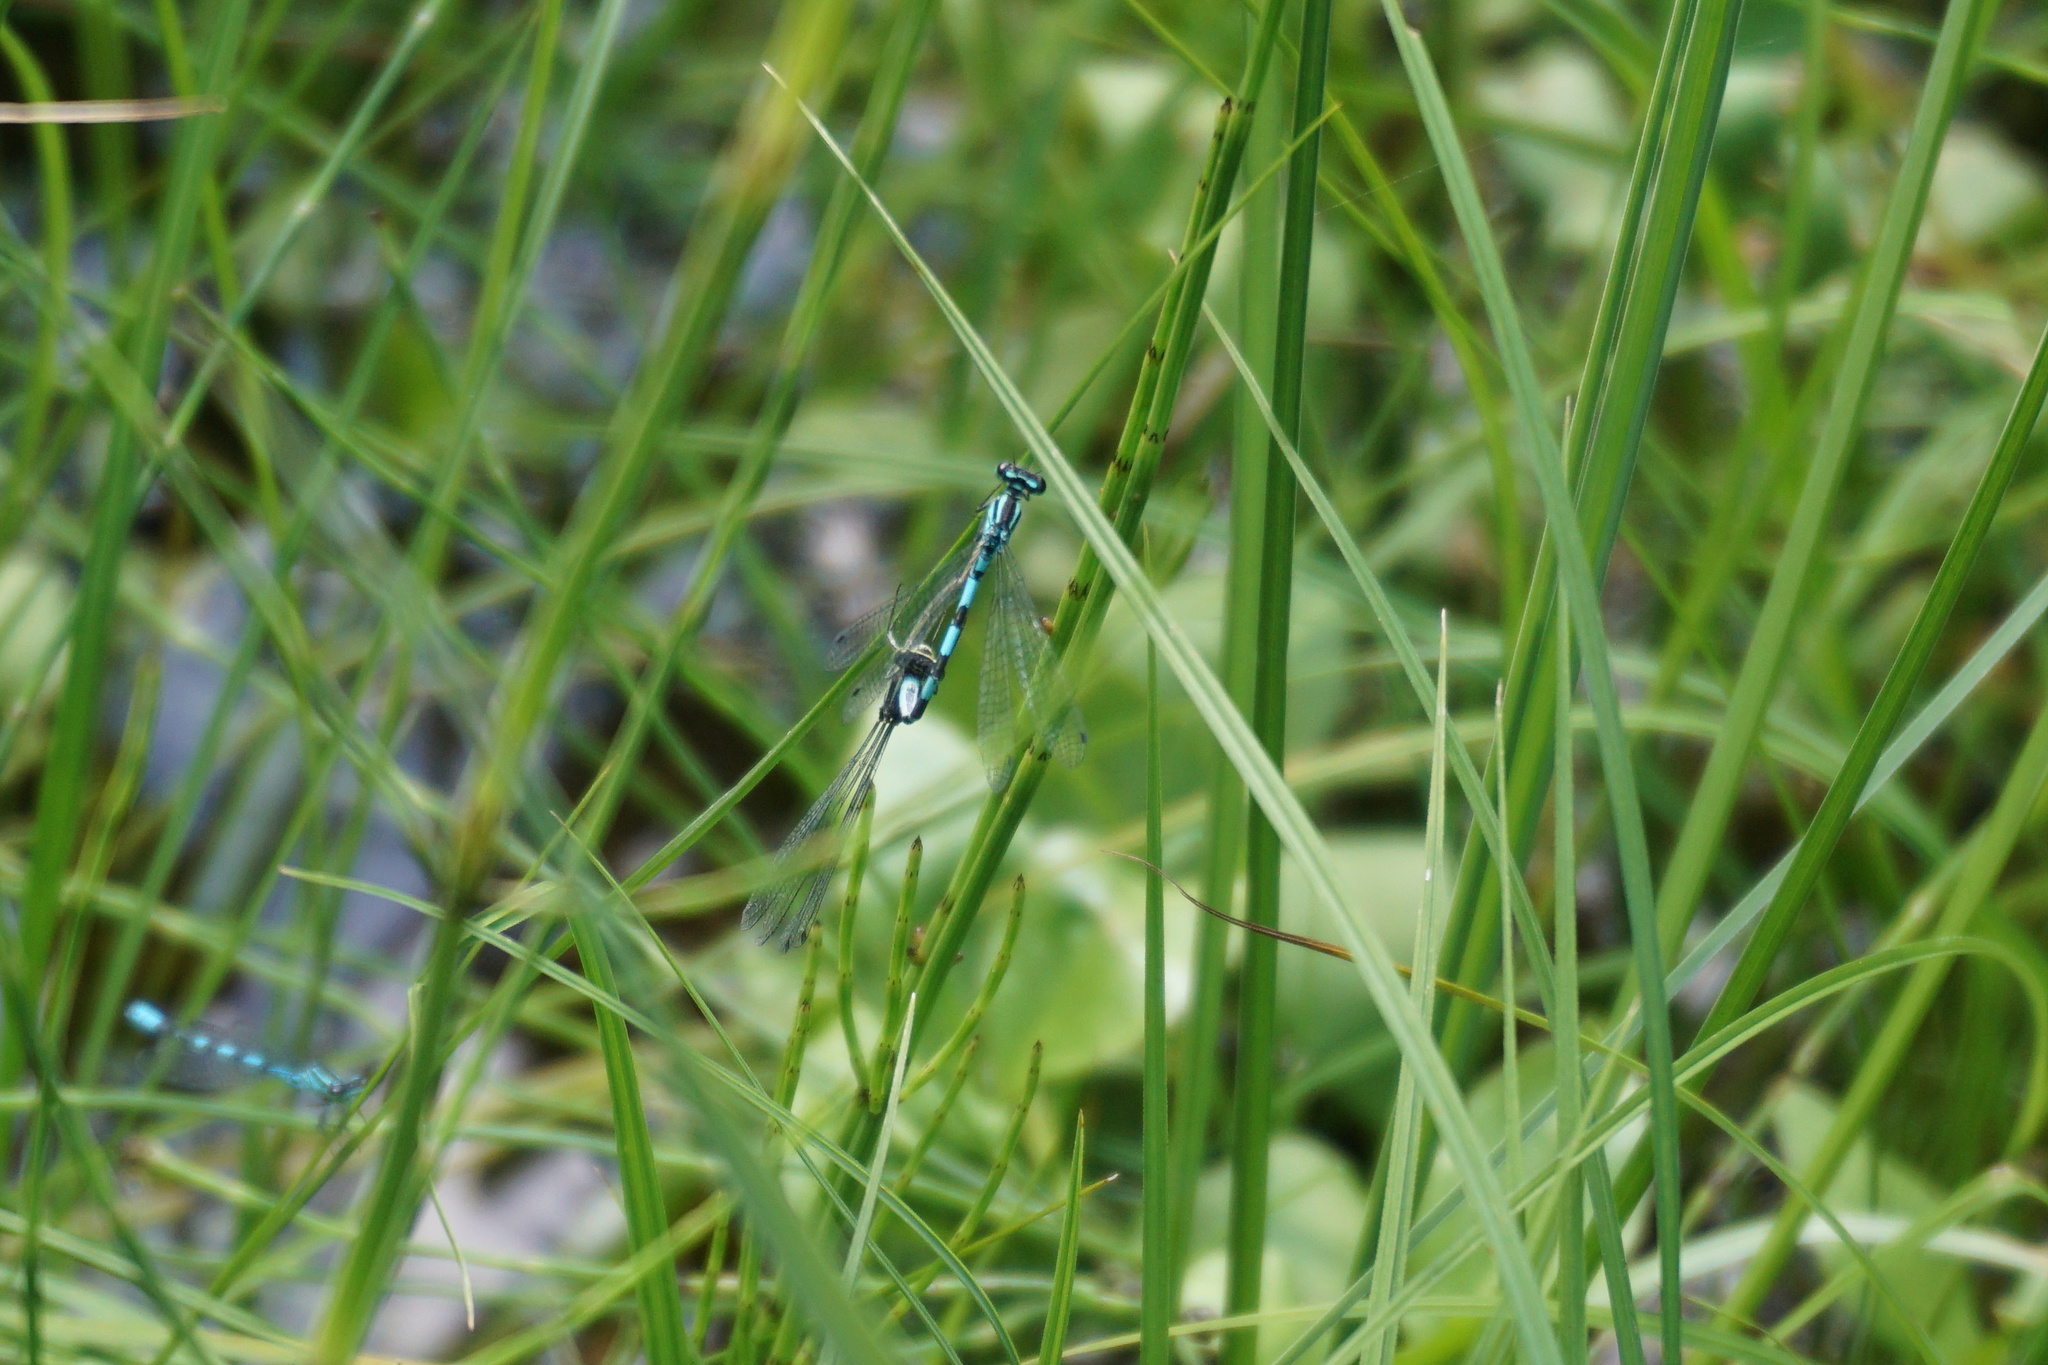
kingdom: Animalia
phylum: Arthropoda
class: Insecta
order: Odonata
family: Coenagrionidae
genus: Coenagrion
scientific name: Coenagrion hastulatum
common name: Spearhead bluet
